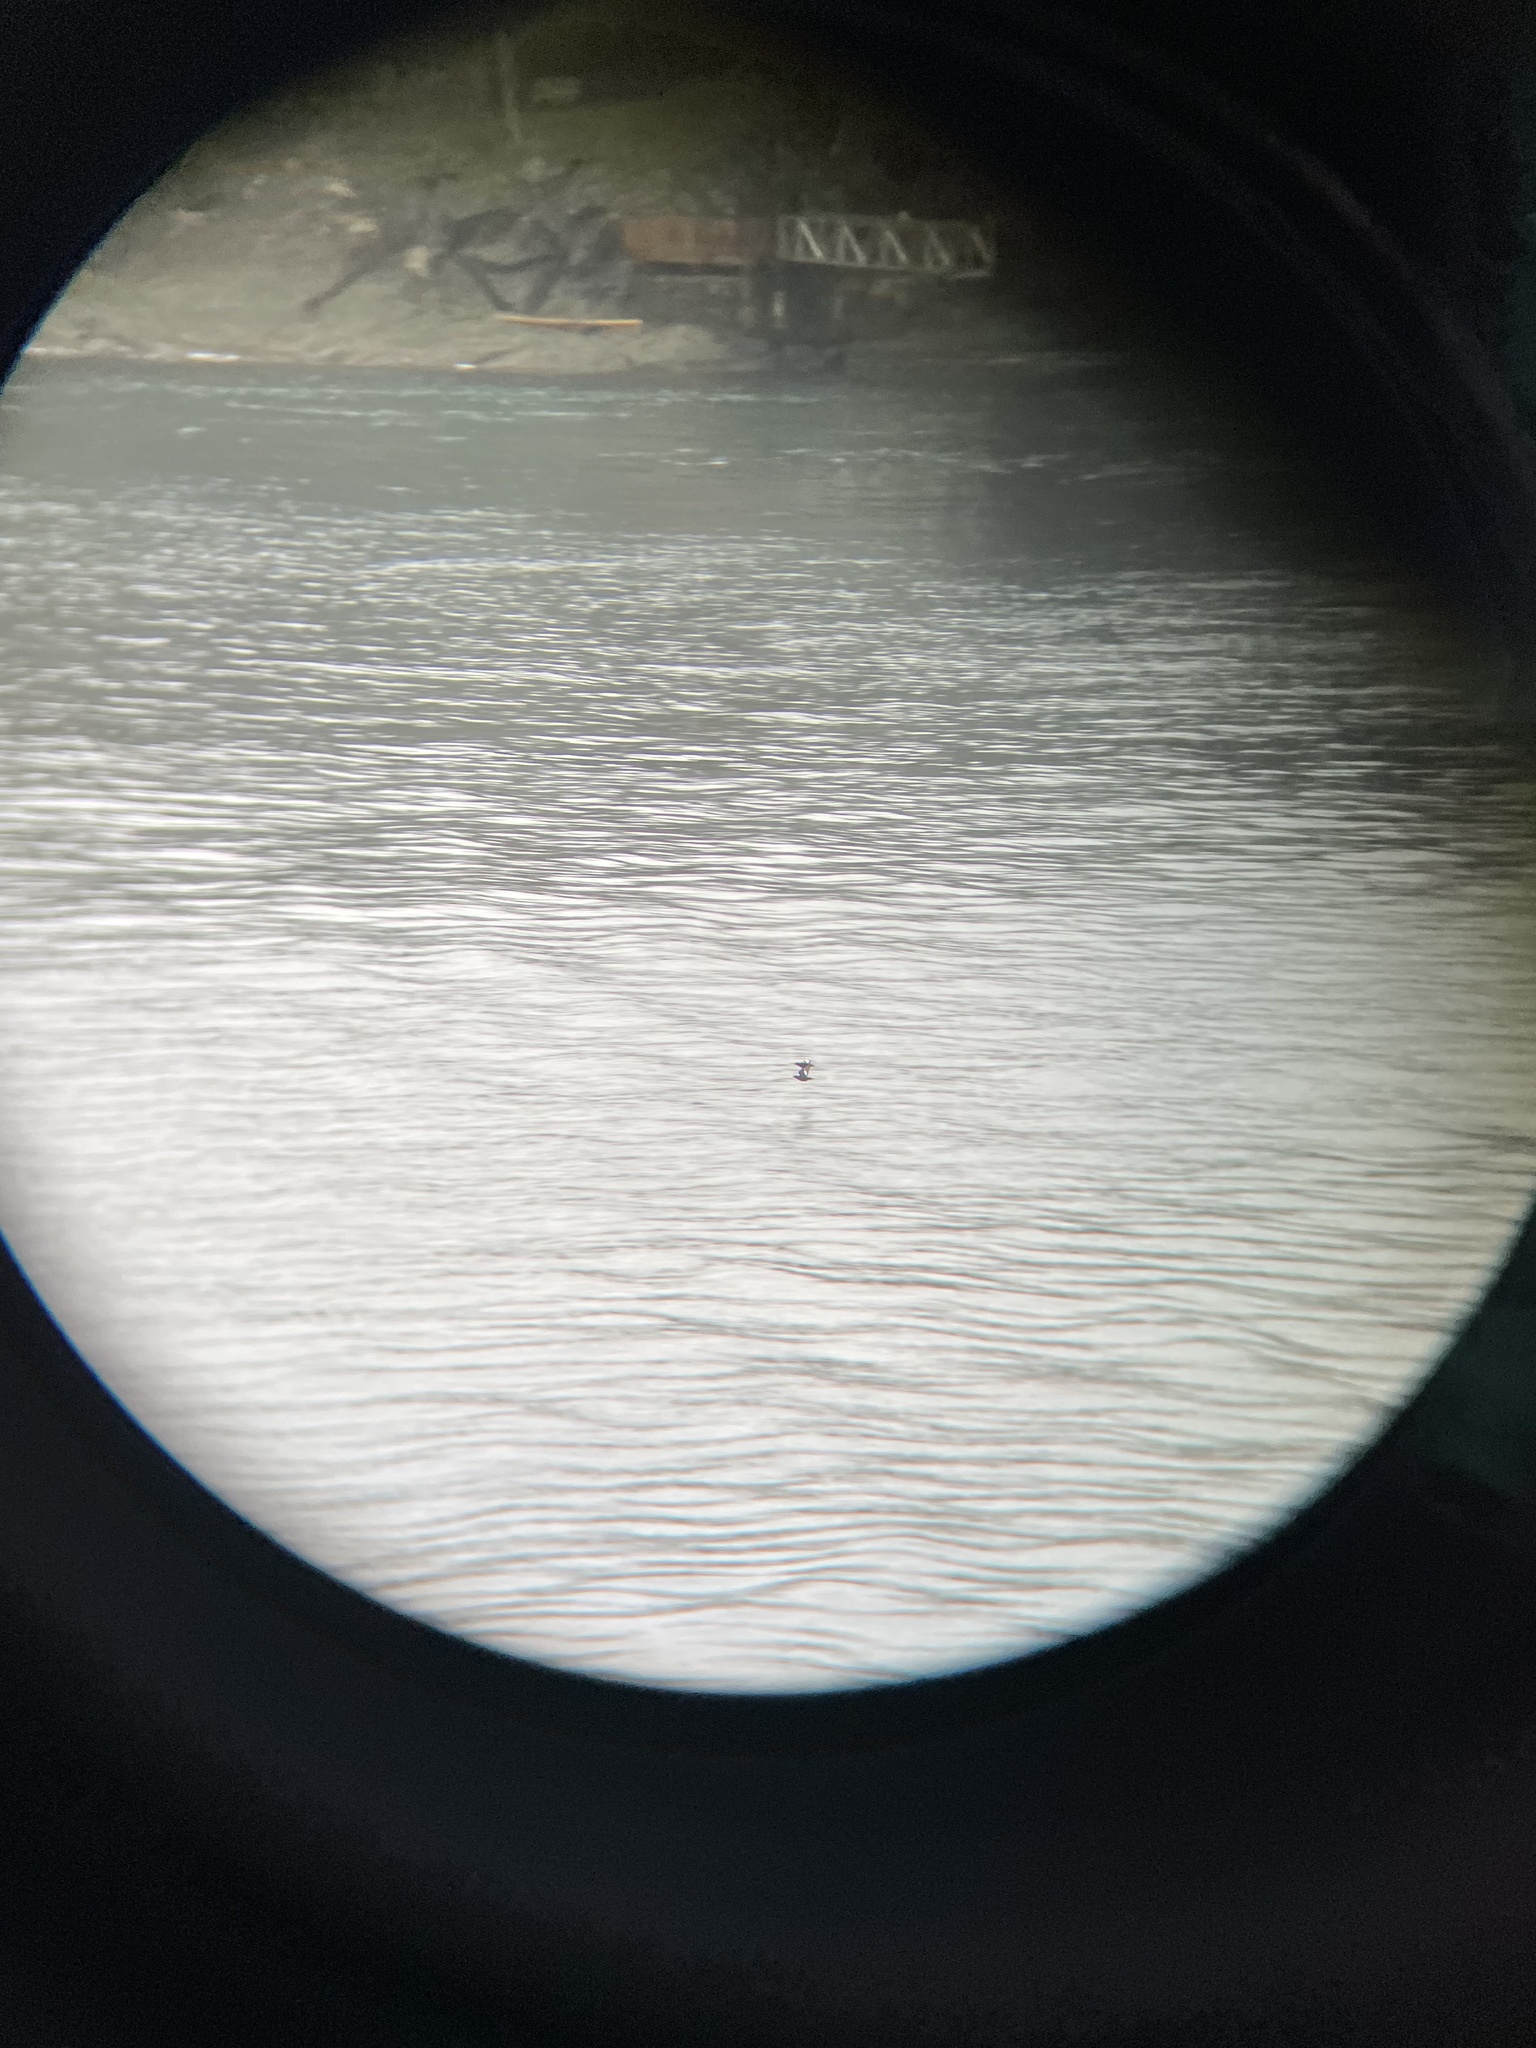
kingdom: Animalia
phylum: Chordata
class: Aves
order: Charadriiformes
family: Alcidae
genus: Cepphus
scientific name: Cepphus columba
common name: Pigeon guillemot
